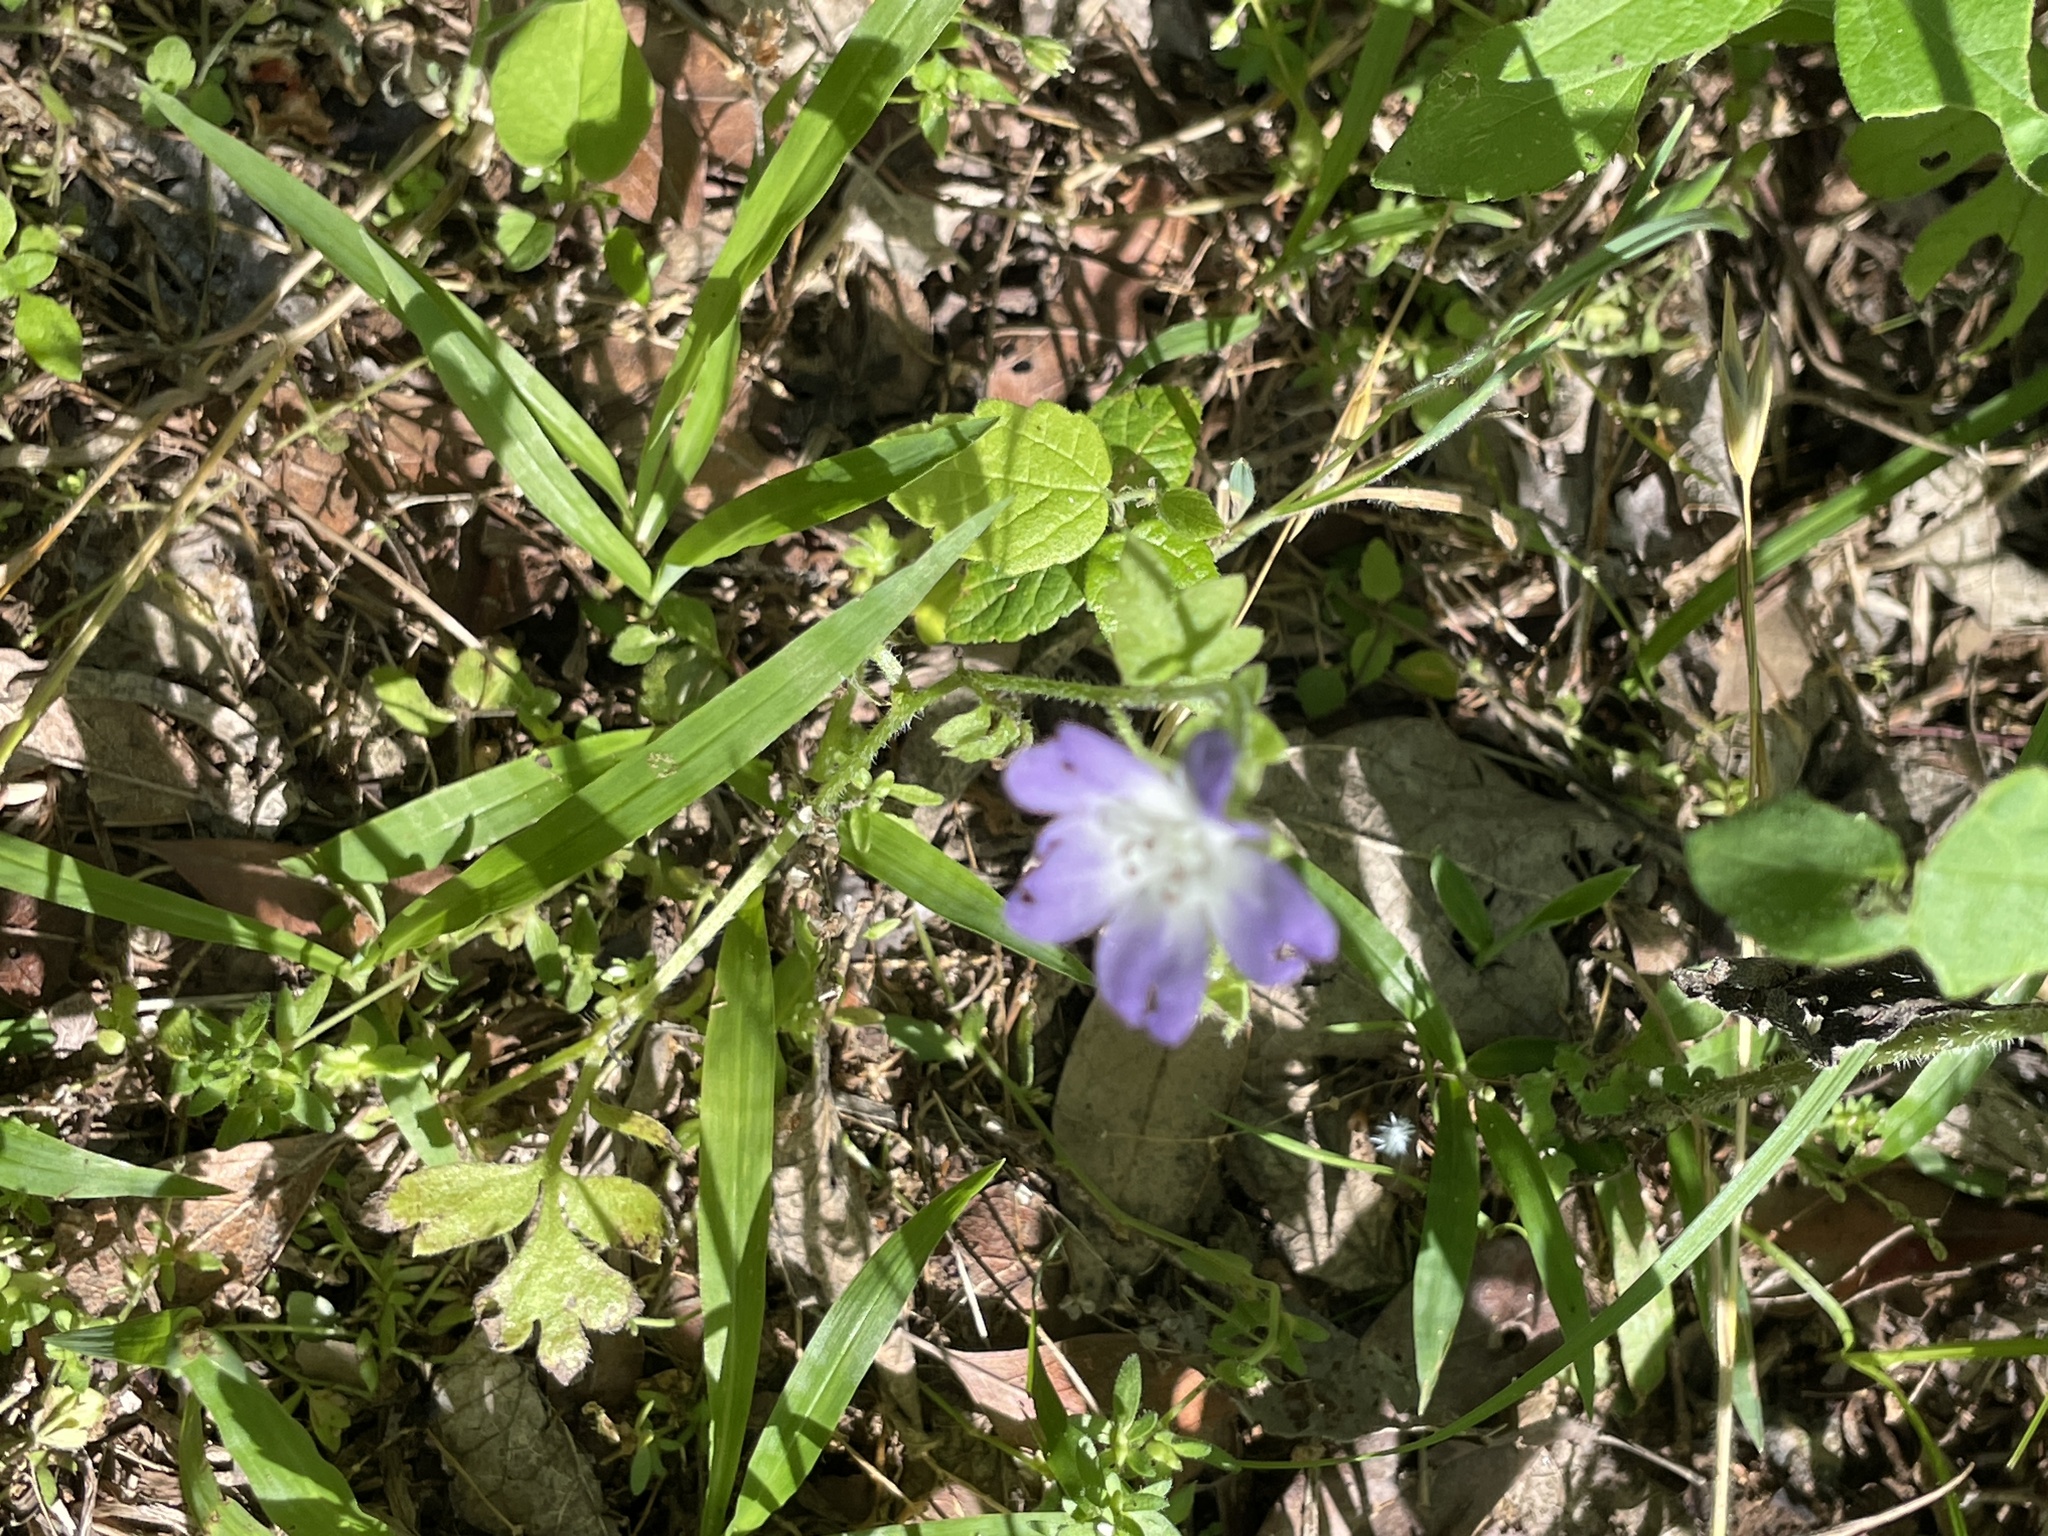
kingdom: Plantae
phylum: Tracheophyta
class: Magnoliopsida
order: Boraginales
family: Hydrophyllaceae
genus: Nemophila
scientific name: Nemophila phacelioides
